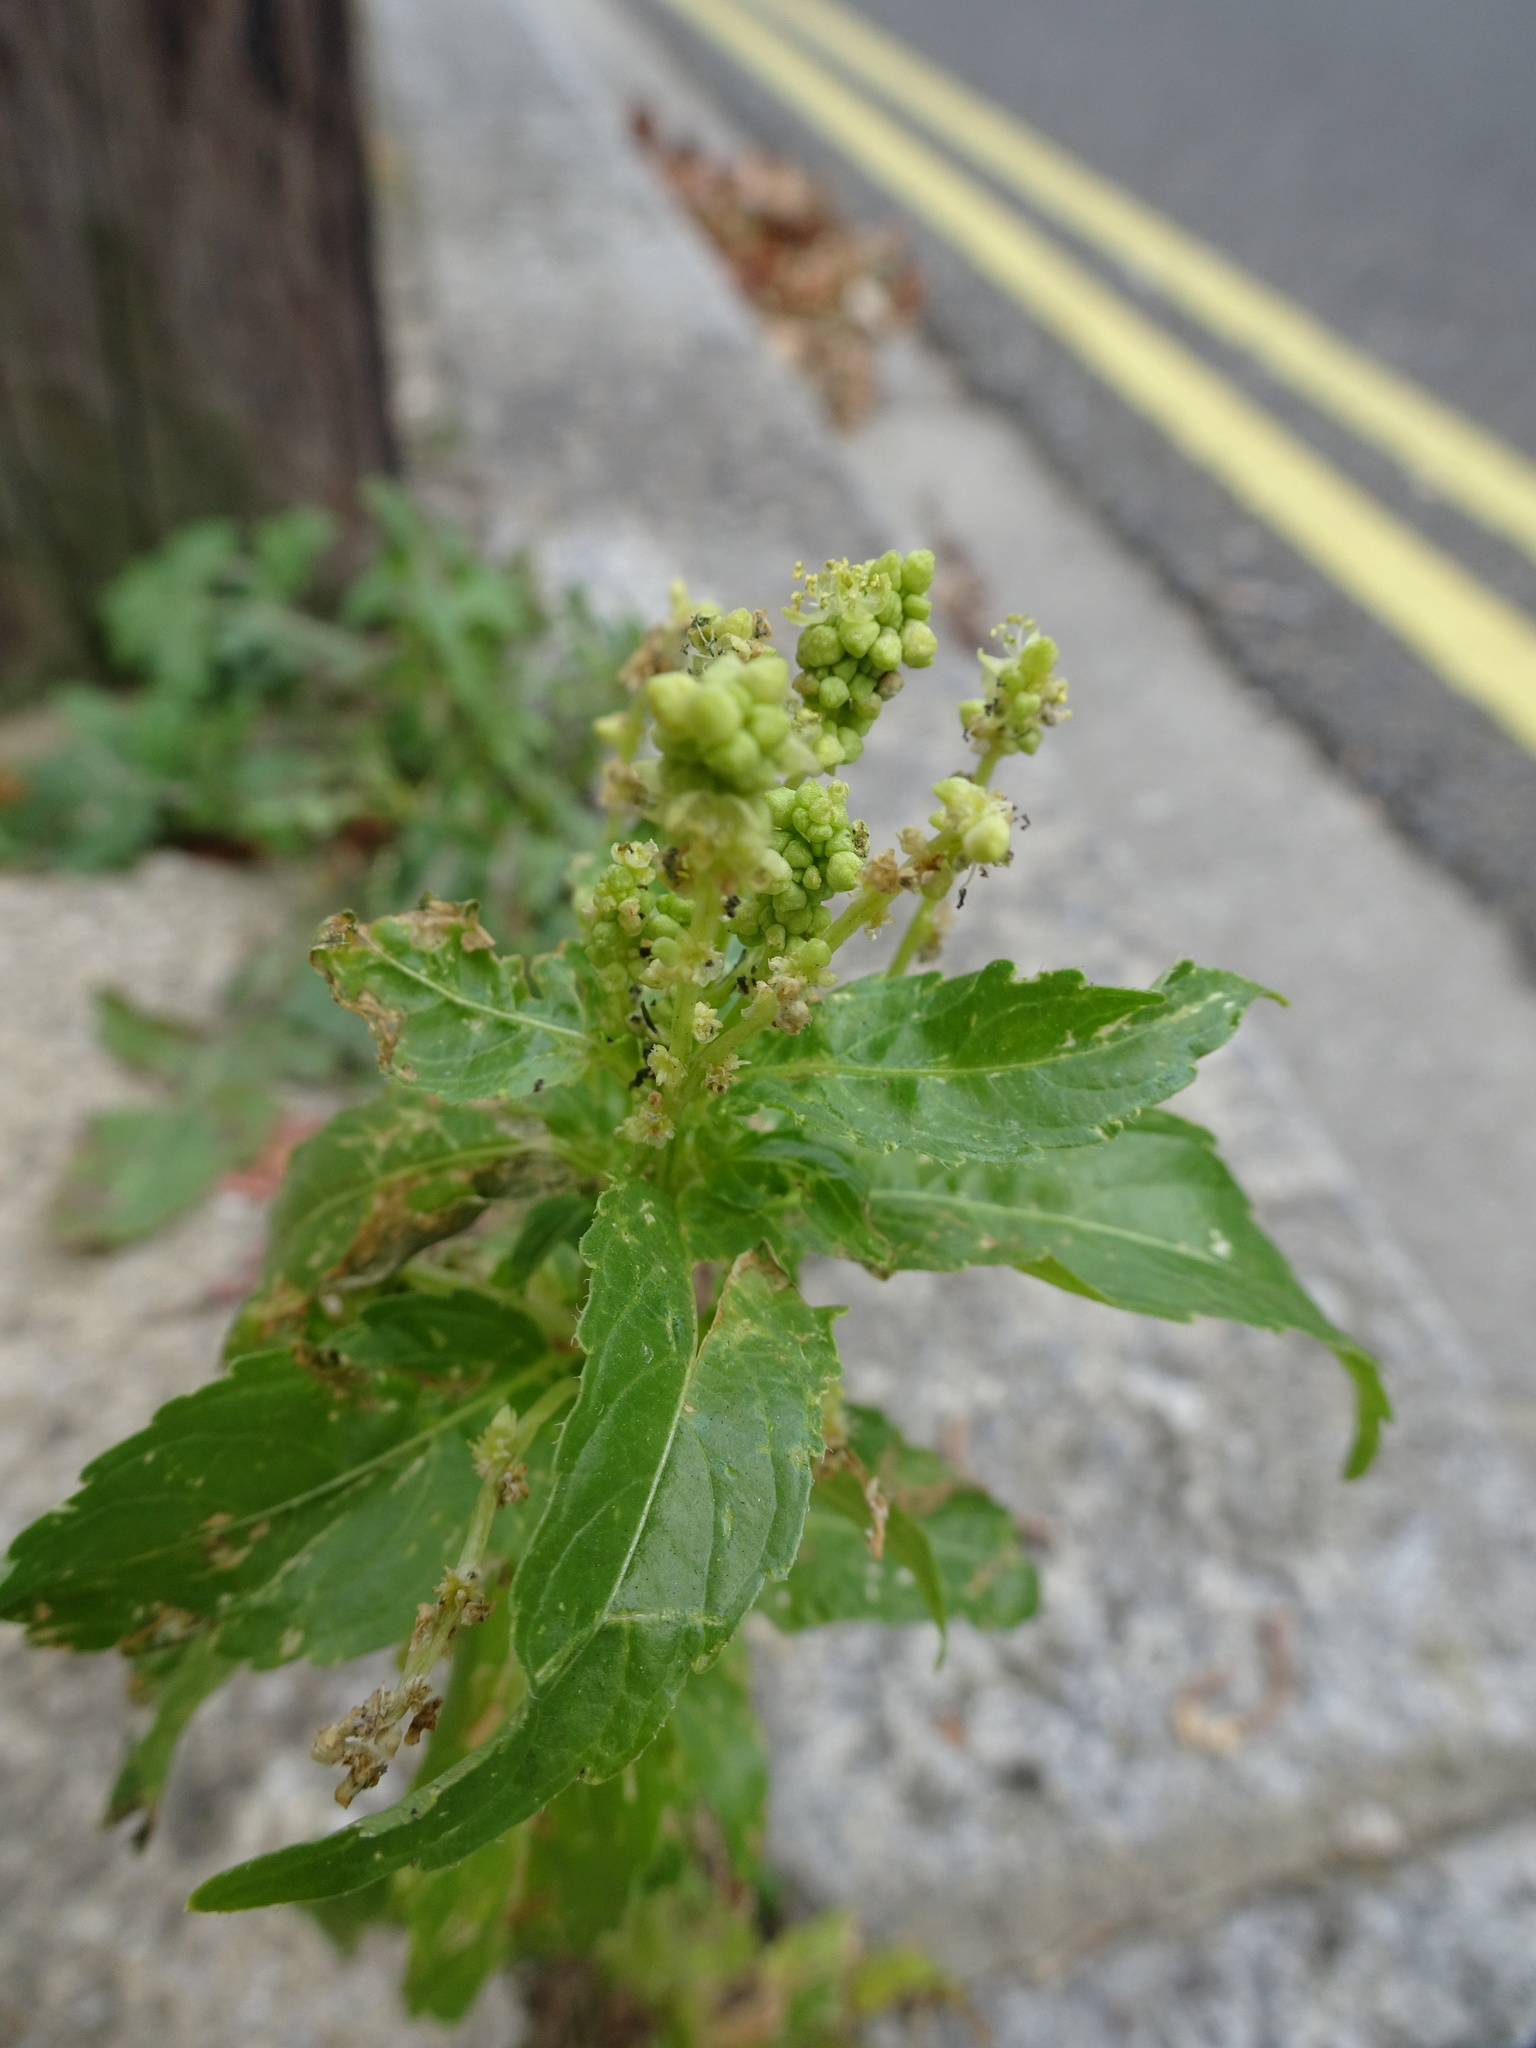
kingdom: Plantae
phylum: Tracheophyta
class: Magnoliopsida
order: Malpighiales
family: Euphorbiaceae
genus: Mercurialis
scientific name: Mercurialis annua
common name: Annual mercury
